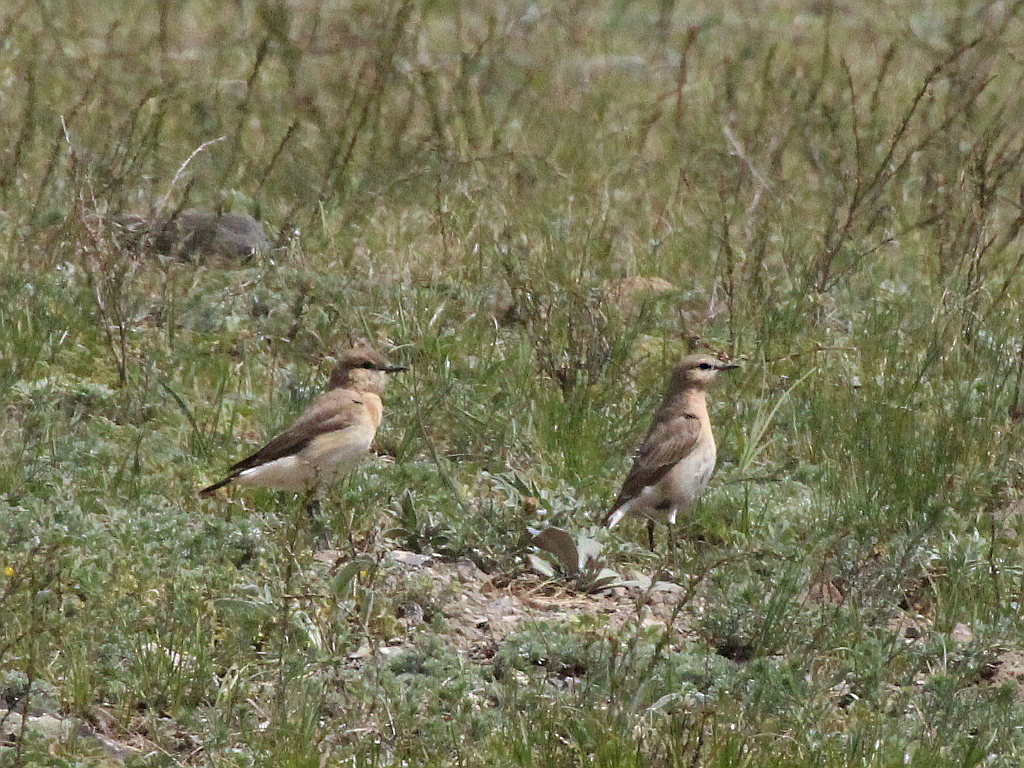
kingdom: Animalia
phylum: Chordata
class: Aves
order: Passeriformes
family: Muscicapidae
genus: Oenanthe
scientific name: Oenanthe isabellina
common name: Isabelline wheatear
